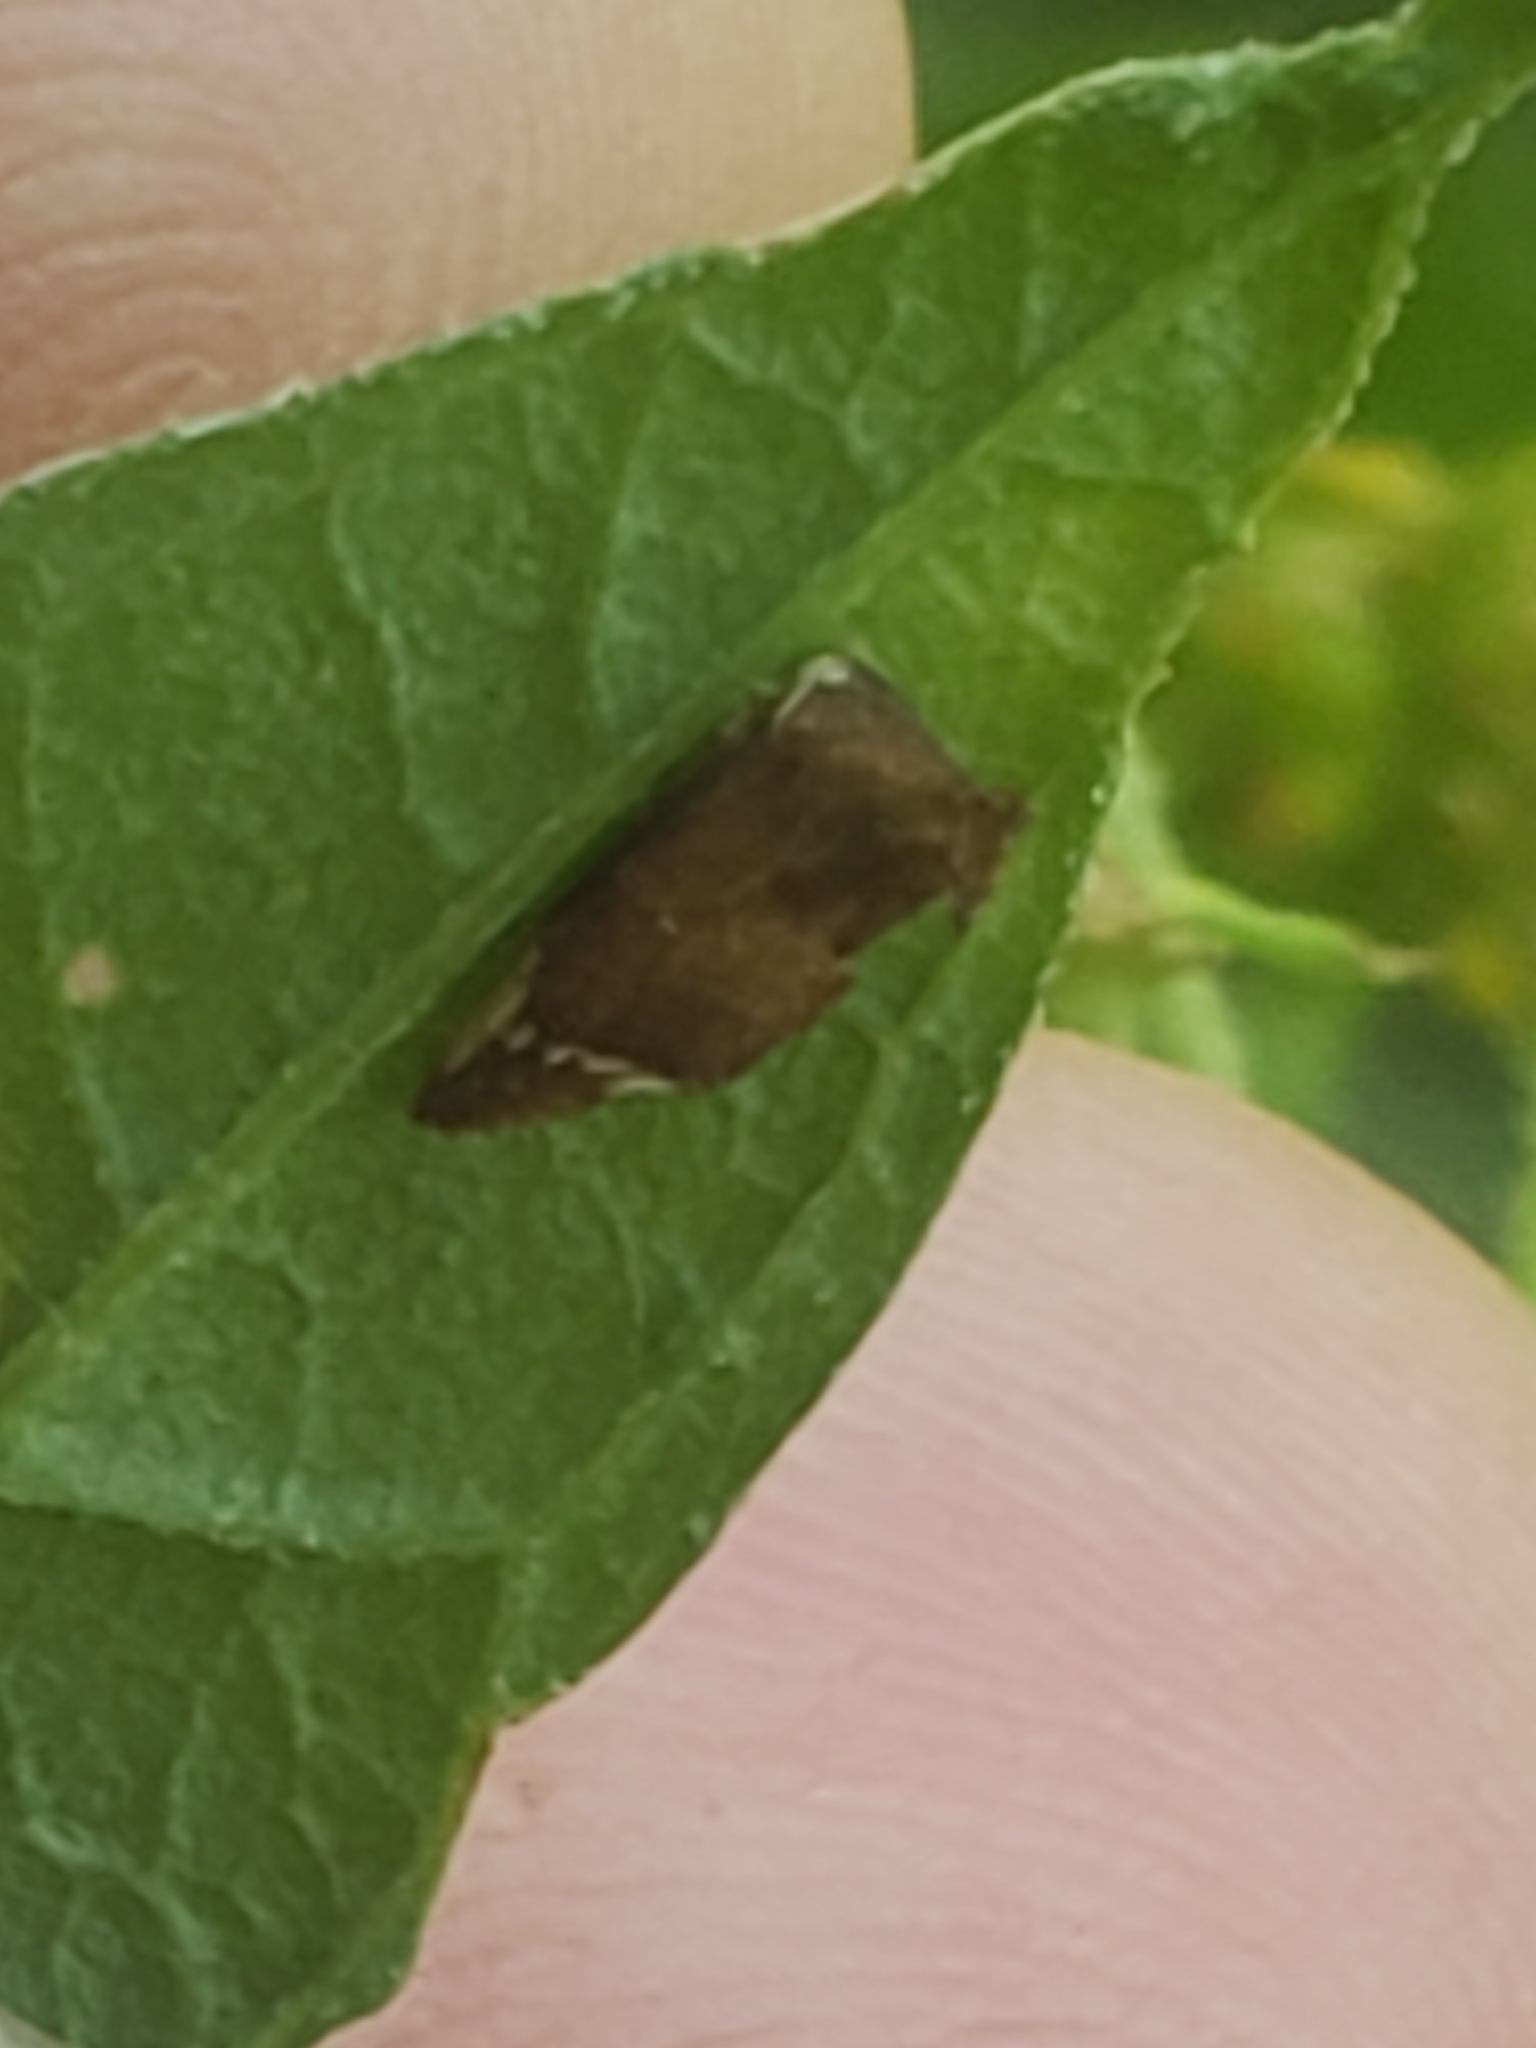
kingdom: Animalia
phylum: Arthropoda
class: Insecta
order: Hemiptera
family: Membracidae
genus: Entylia
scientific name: Entylia carinata
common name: Keeled treehopper
